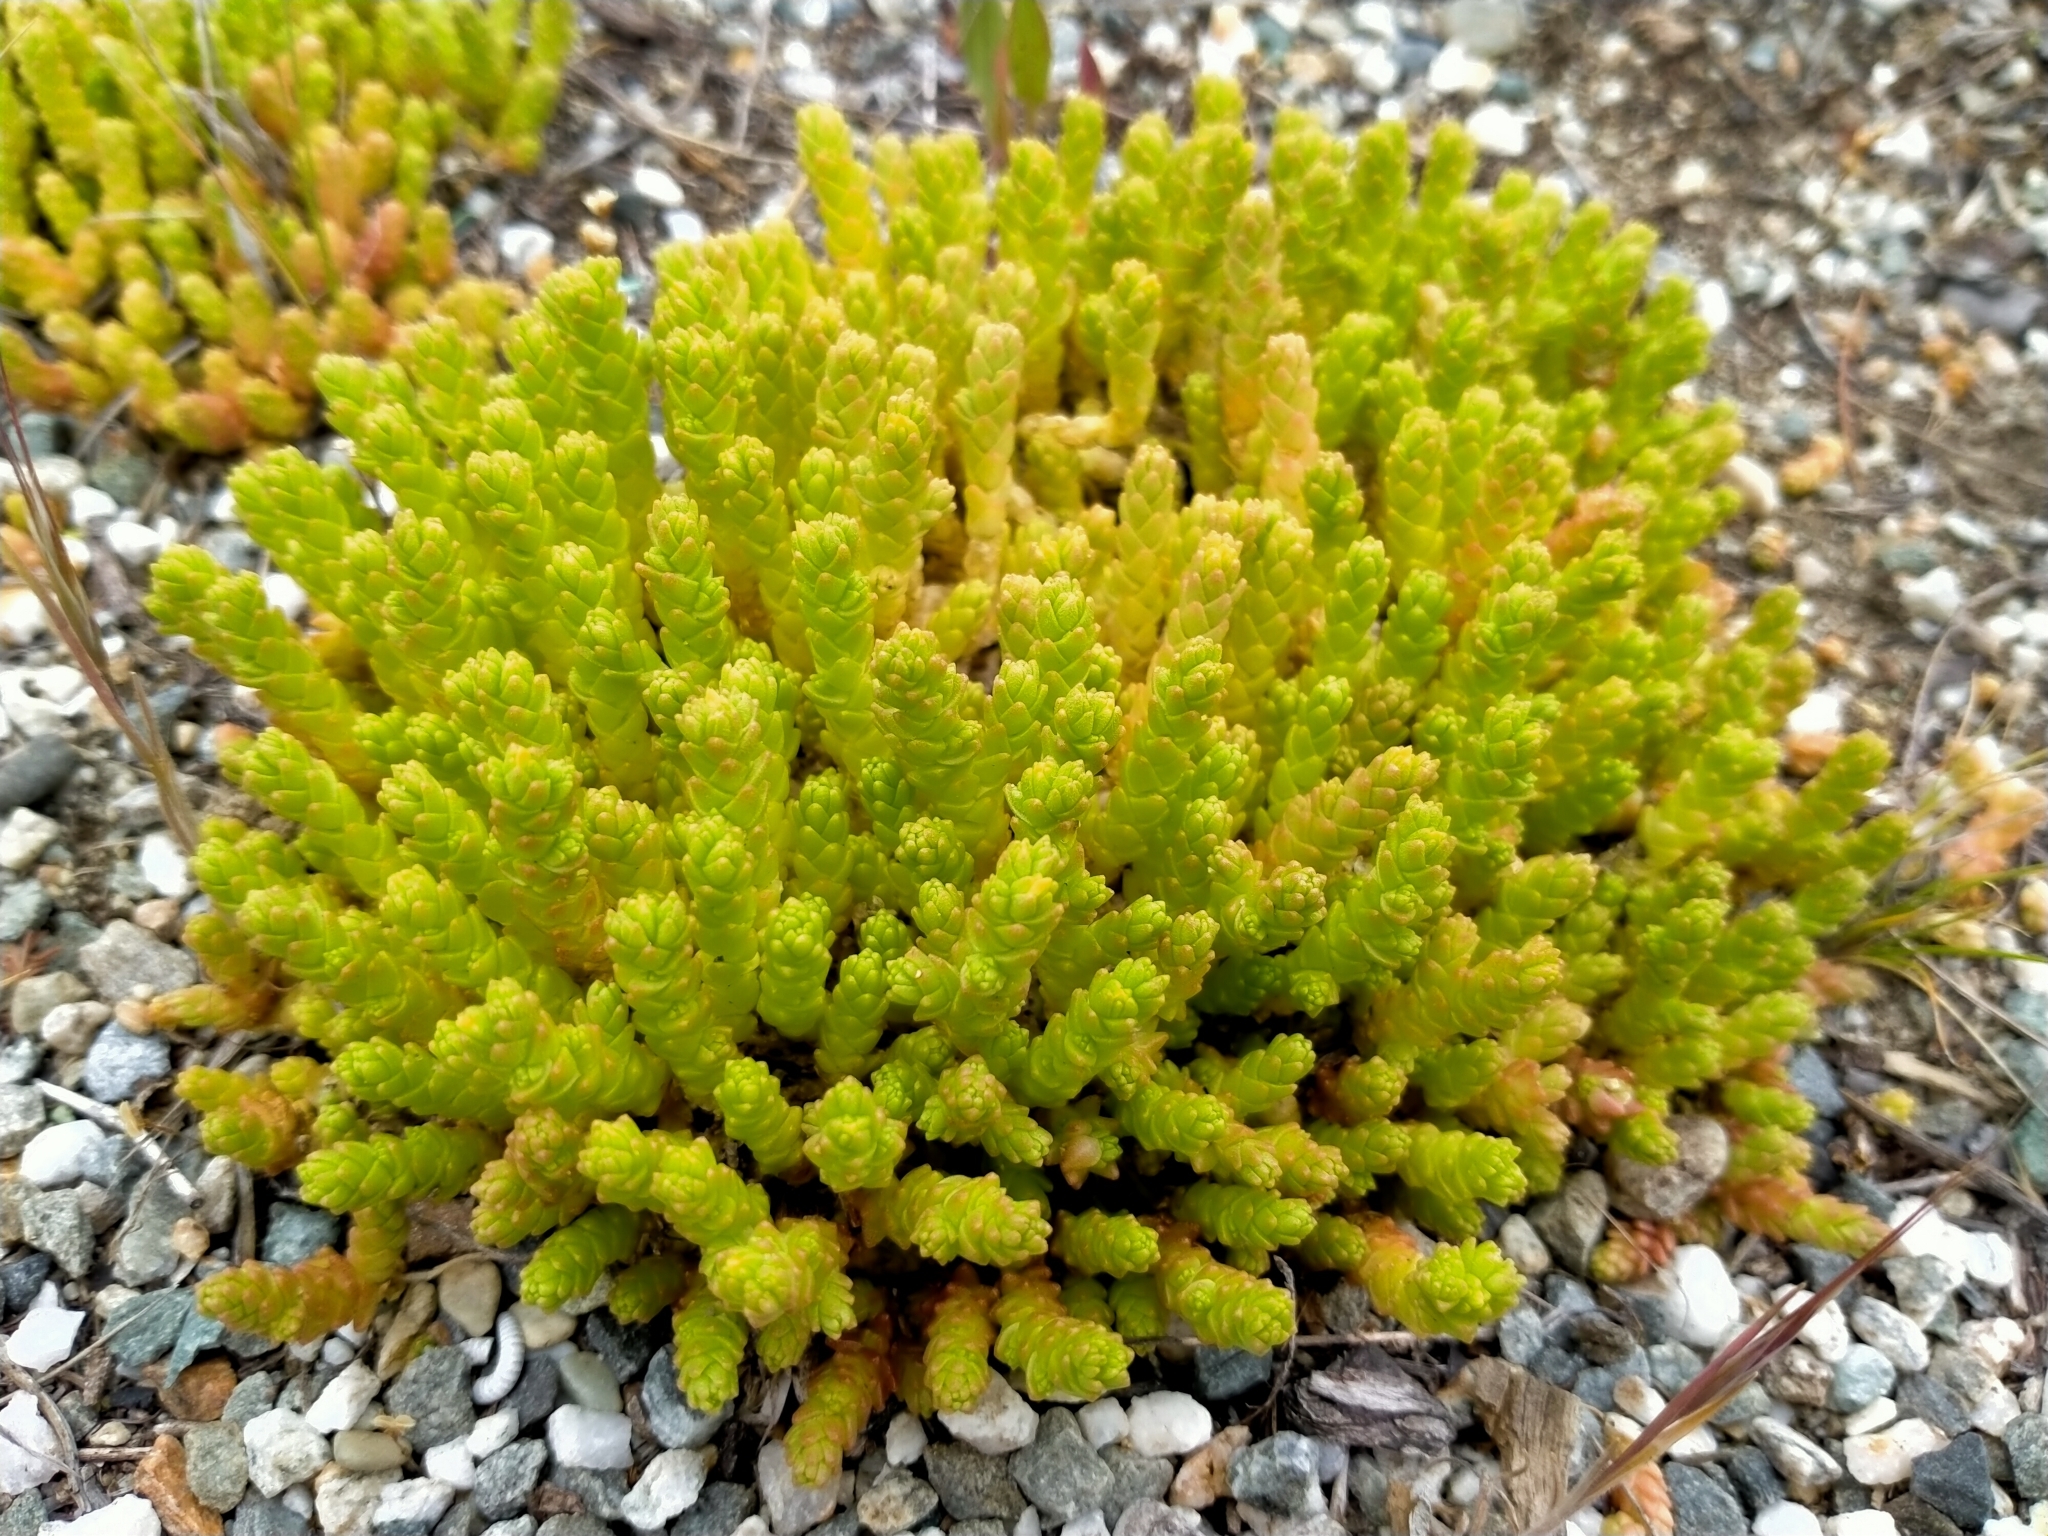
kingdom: Plantae
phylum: Tracheophyta
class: Magnoliopsida
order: Saxifragales
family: Crassulaceae
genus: Sedum
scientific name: Sedum acre
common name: Biting stonecrop
